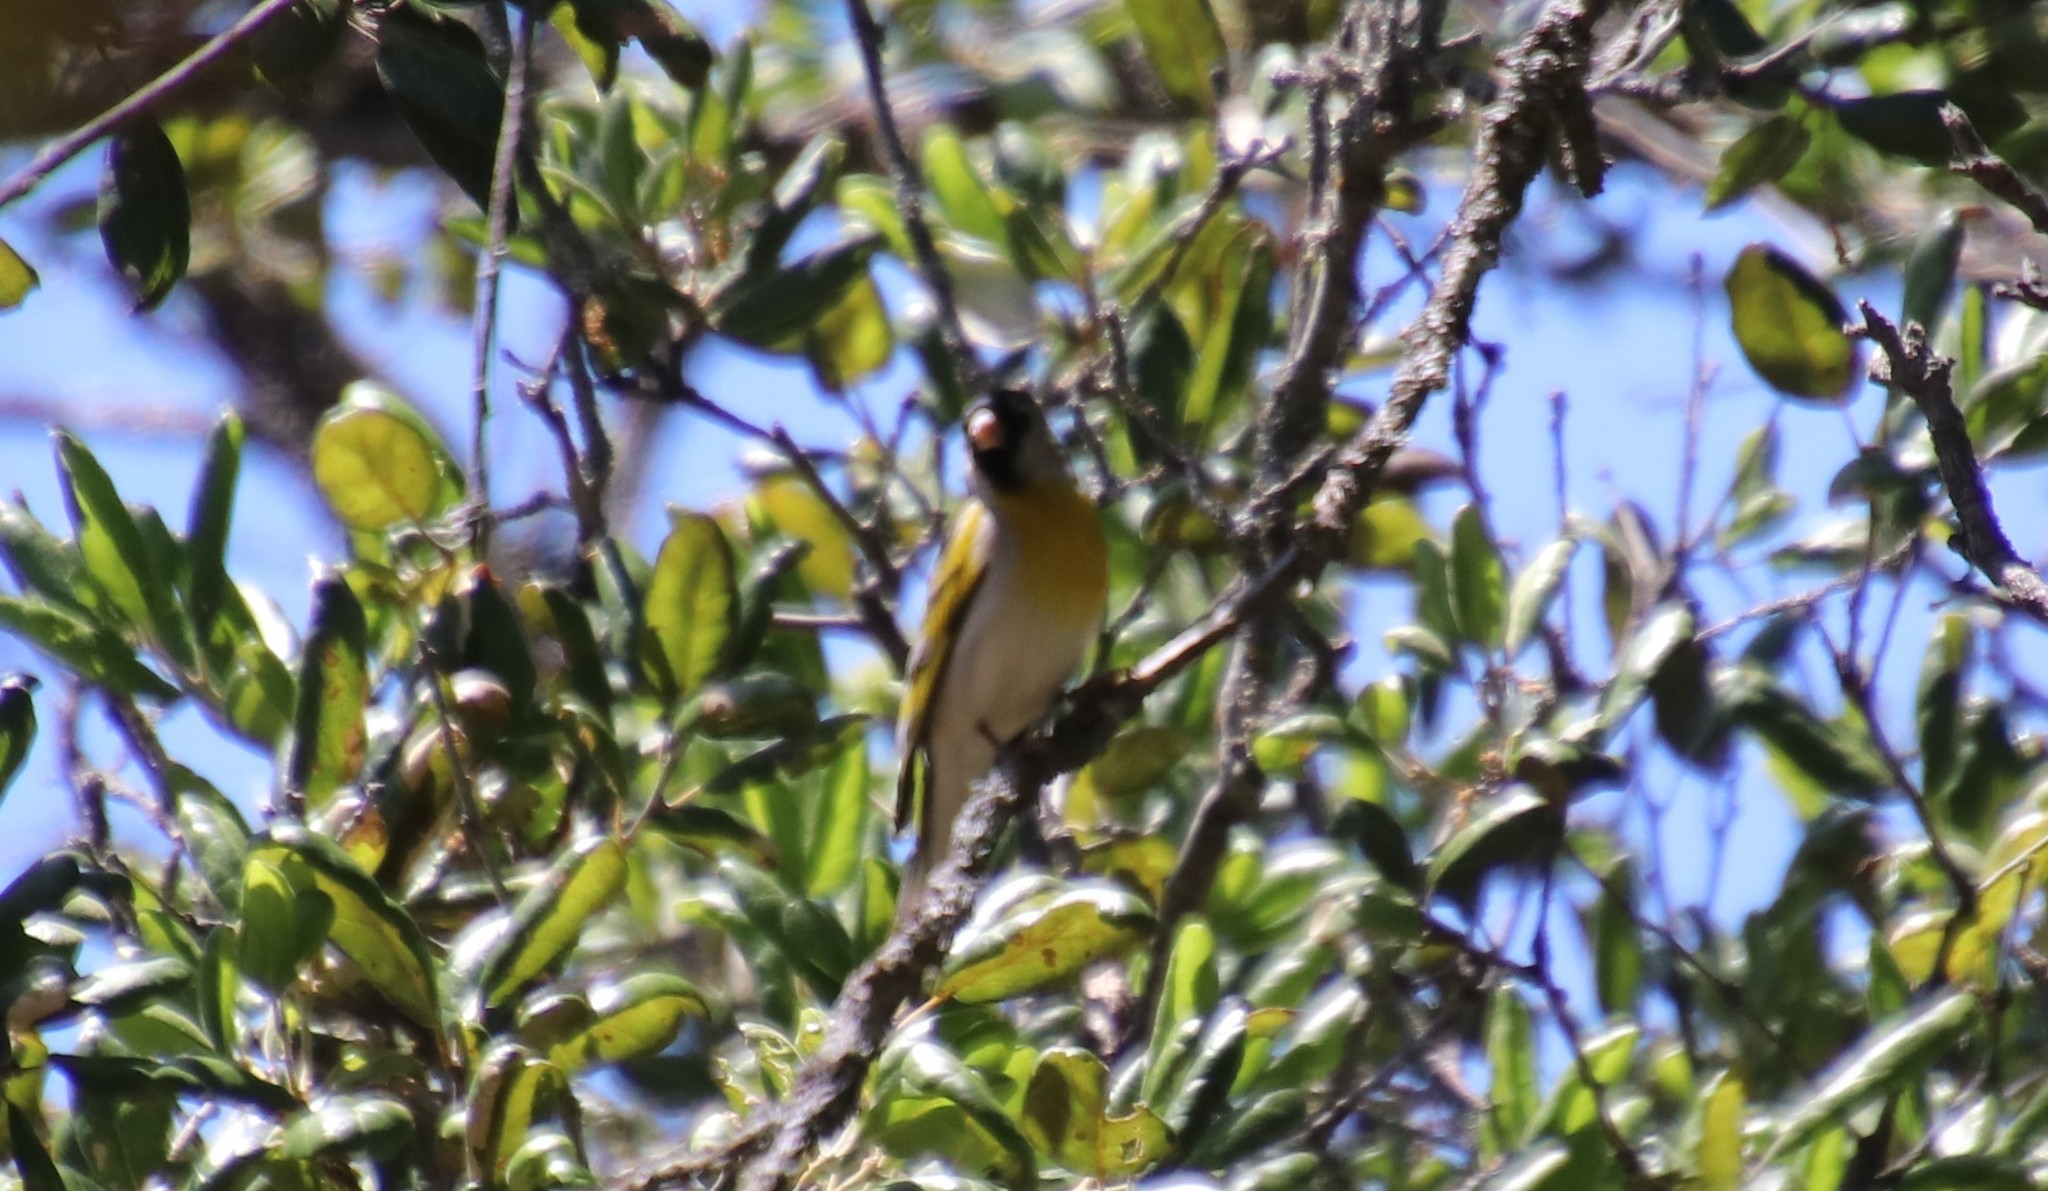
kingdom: Animalia
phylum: Chordata
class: Aves
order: Passeriformes
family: Fringillidae
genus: Spinus
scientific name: Spinus lawrencei
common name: Lawrence's goldfinch
